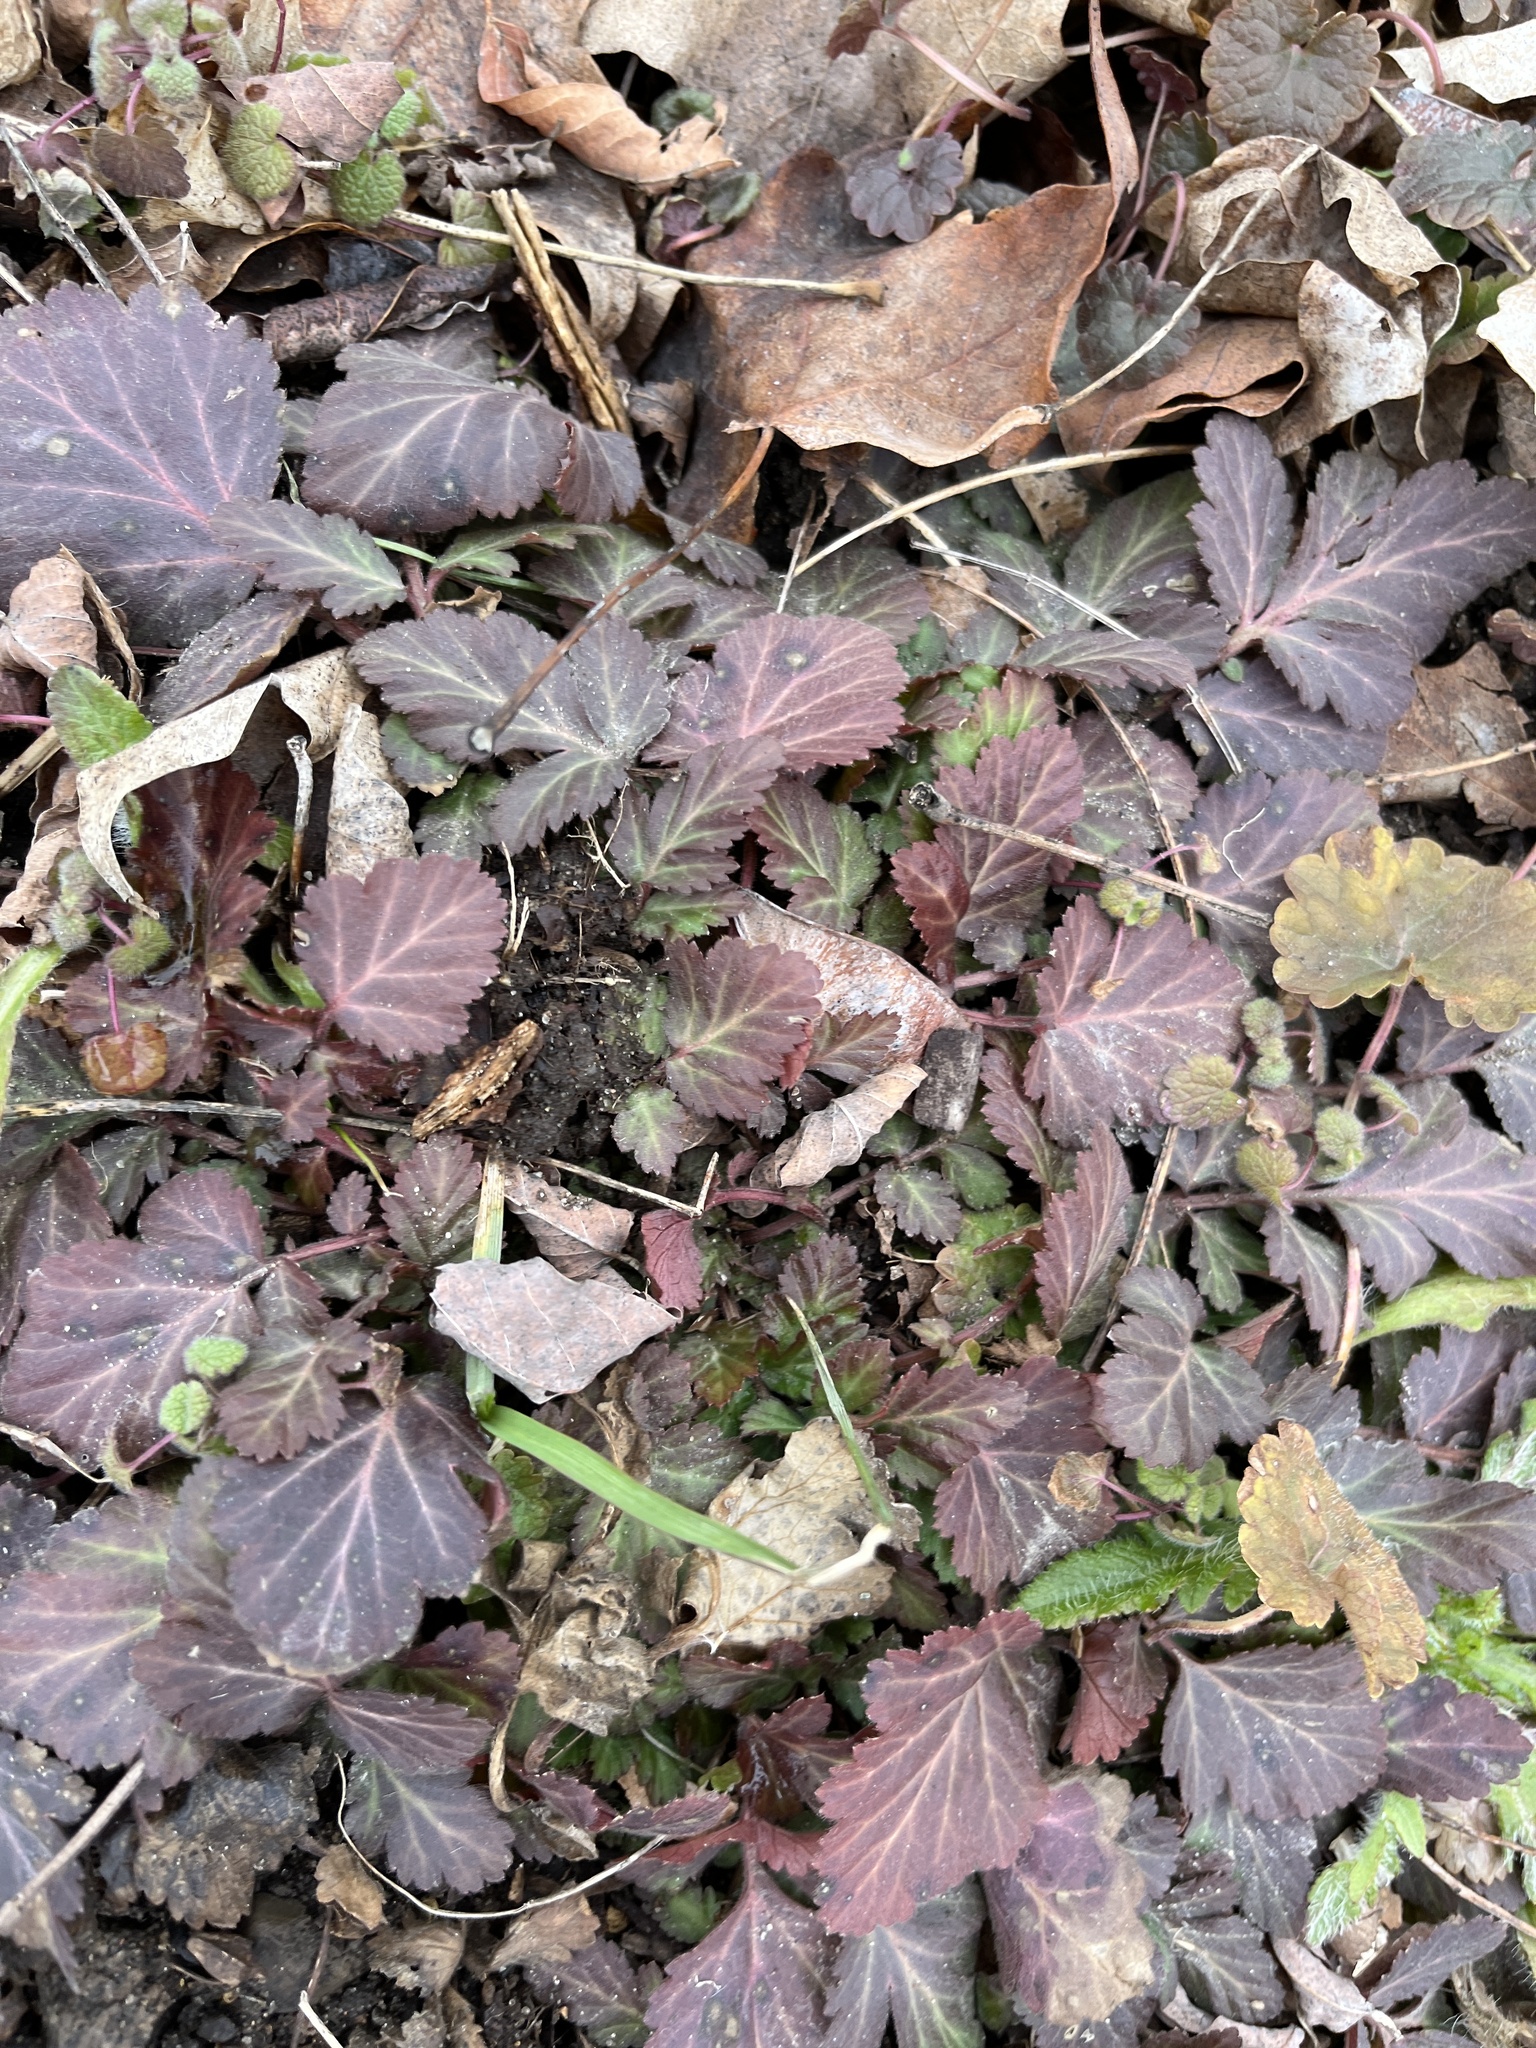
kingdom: Plantae
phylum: Tracheophyta
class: Magnoliopsida
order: Rosales
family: Rosaceae
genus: Geum
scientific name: Geum canadense
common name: White avens
